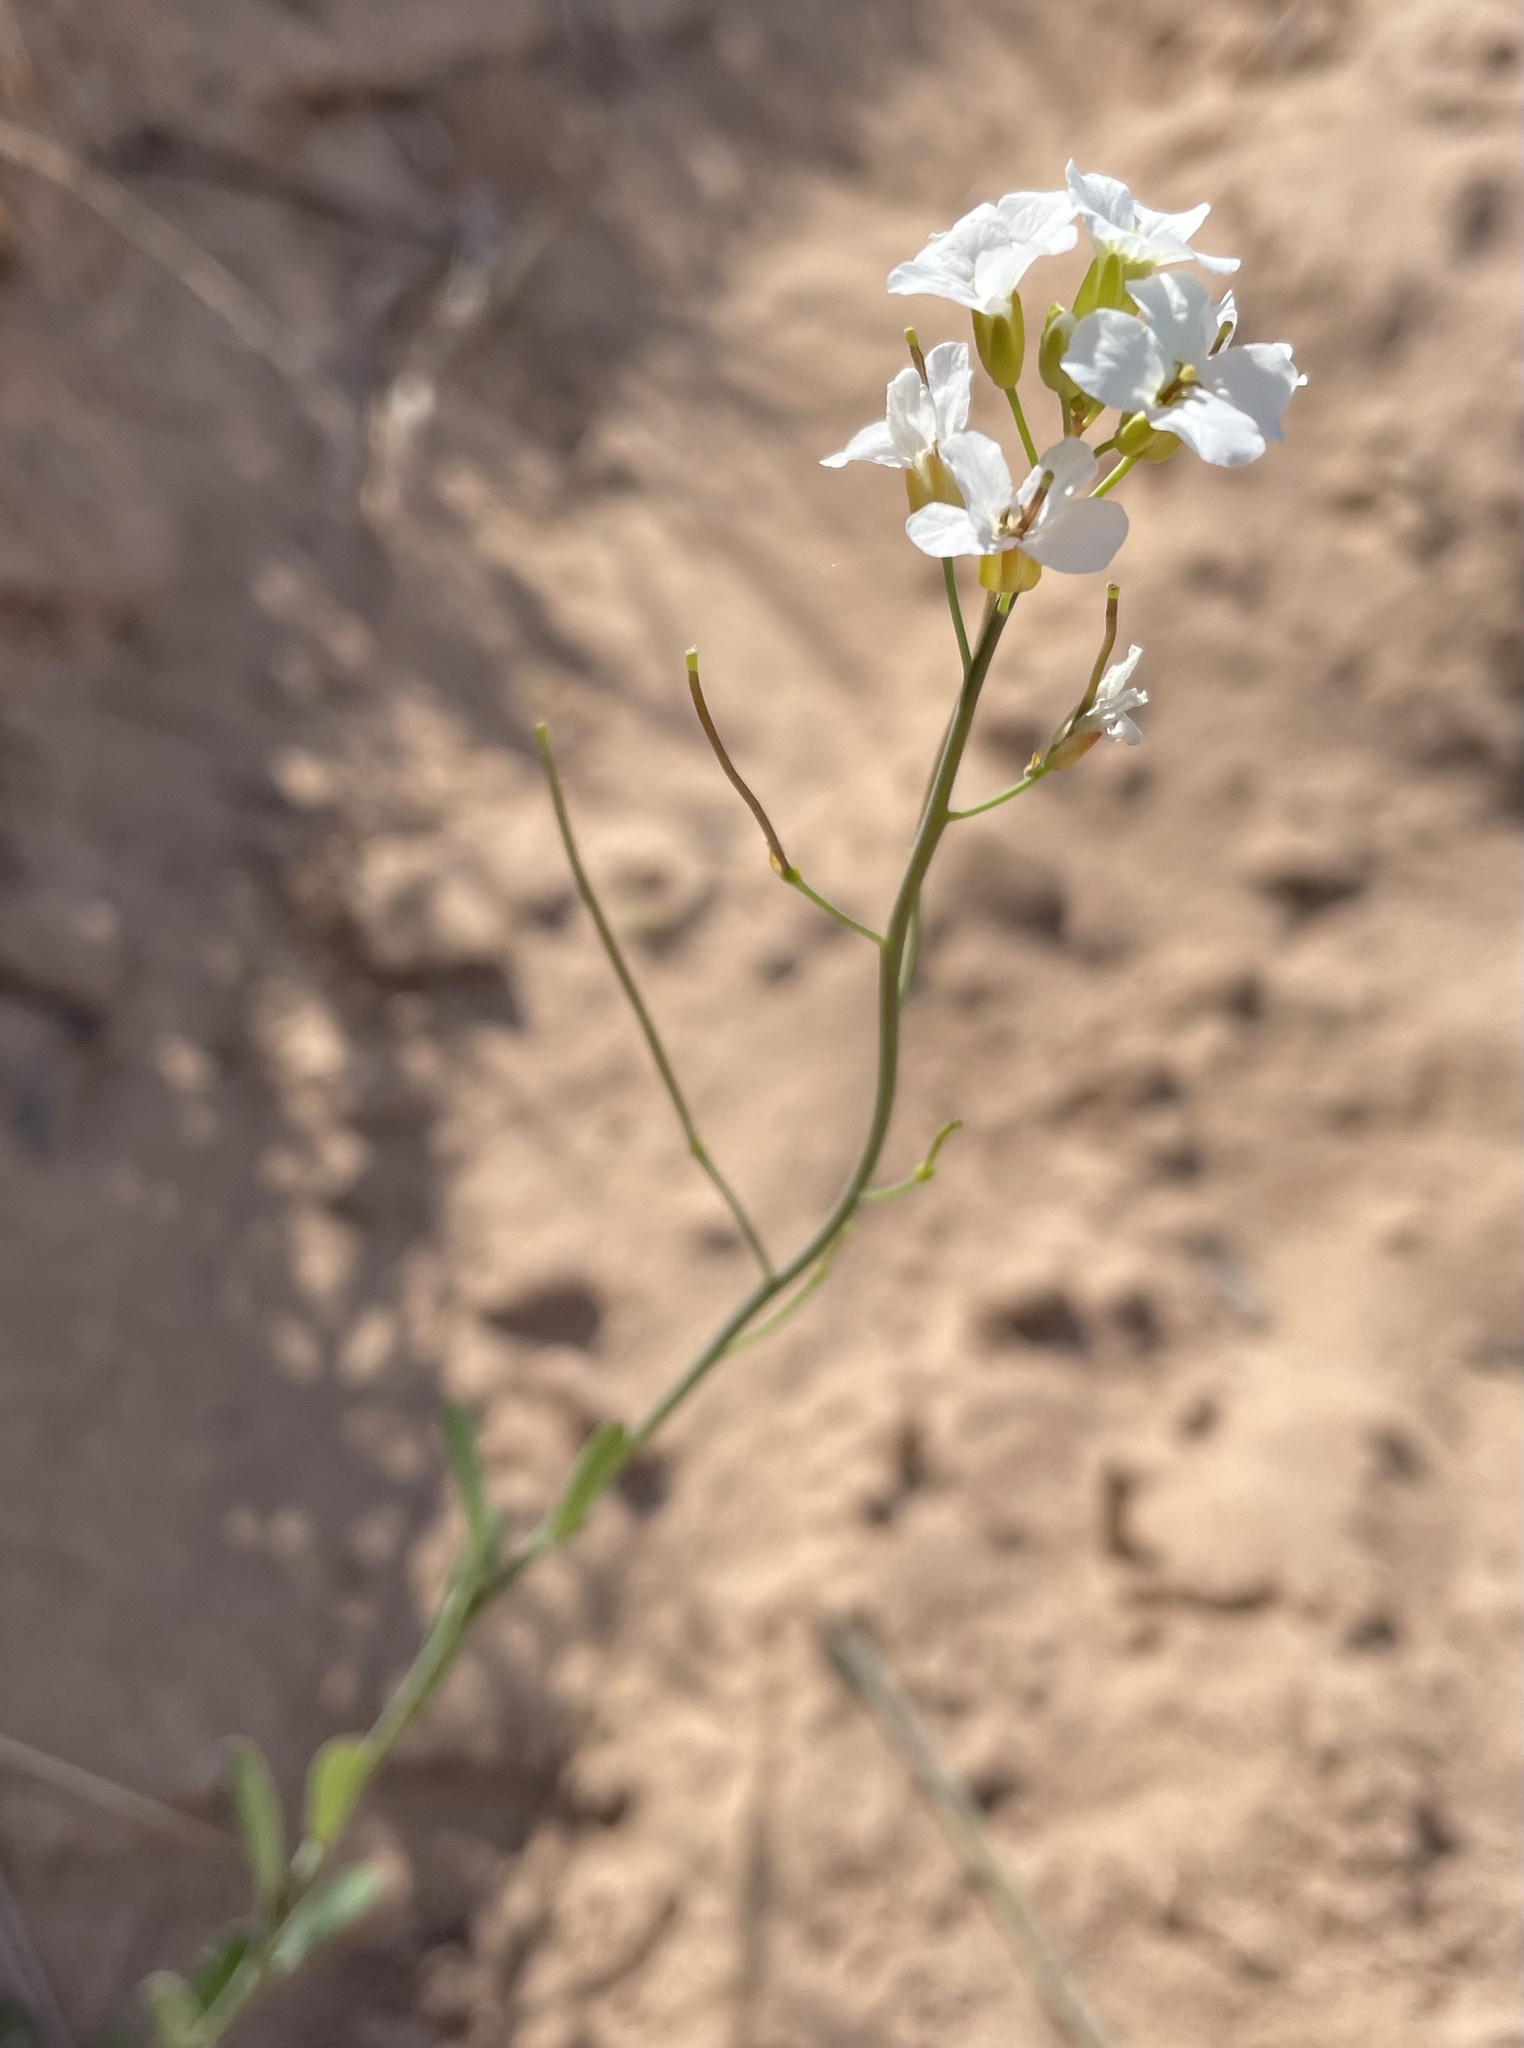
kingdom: Plantae
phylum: Tracheophyta
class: Magnoliopsida
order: Brassicales
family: Brassicaceae
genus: Arabidopsis
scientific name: Arabidopsis lyrata
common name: Lyrate rockcress
